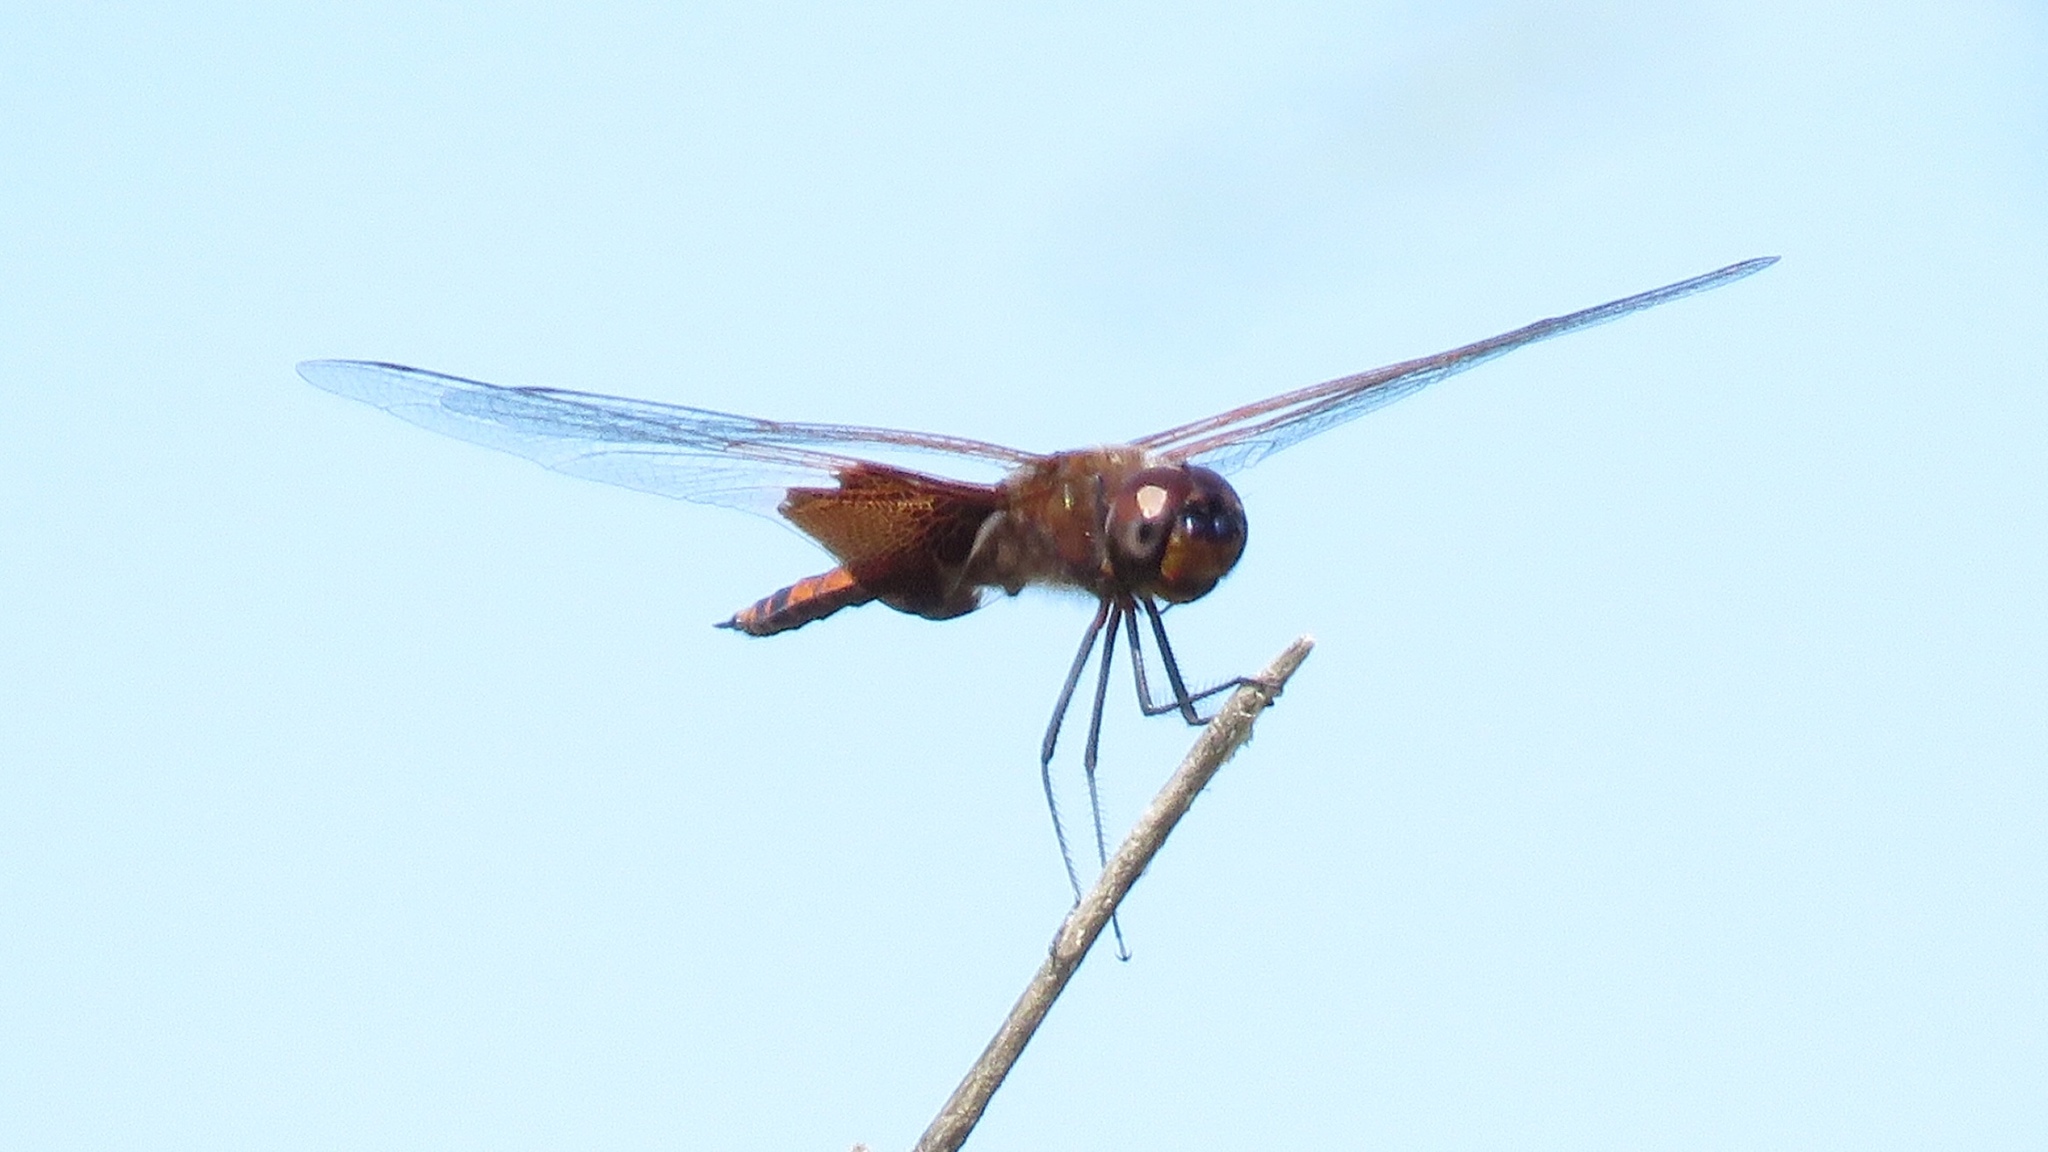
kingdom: Animalia
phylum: Arthropoda
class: Insecta
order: Odonata
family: Libellulidae
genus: Tramea
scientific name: Tramea carolina
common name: Carolina saddlebags
